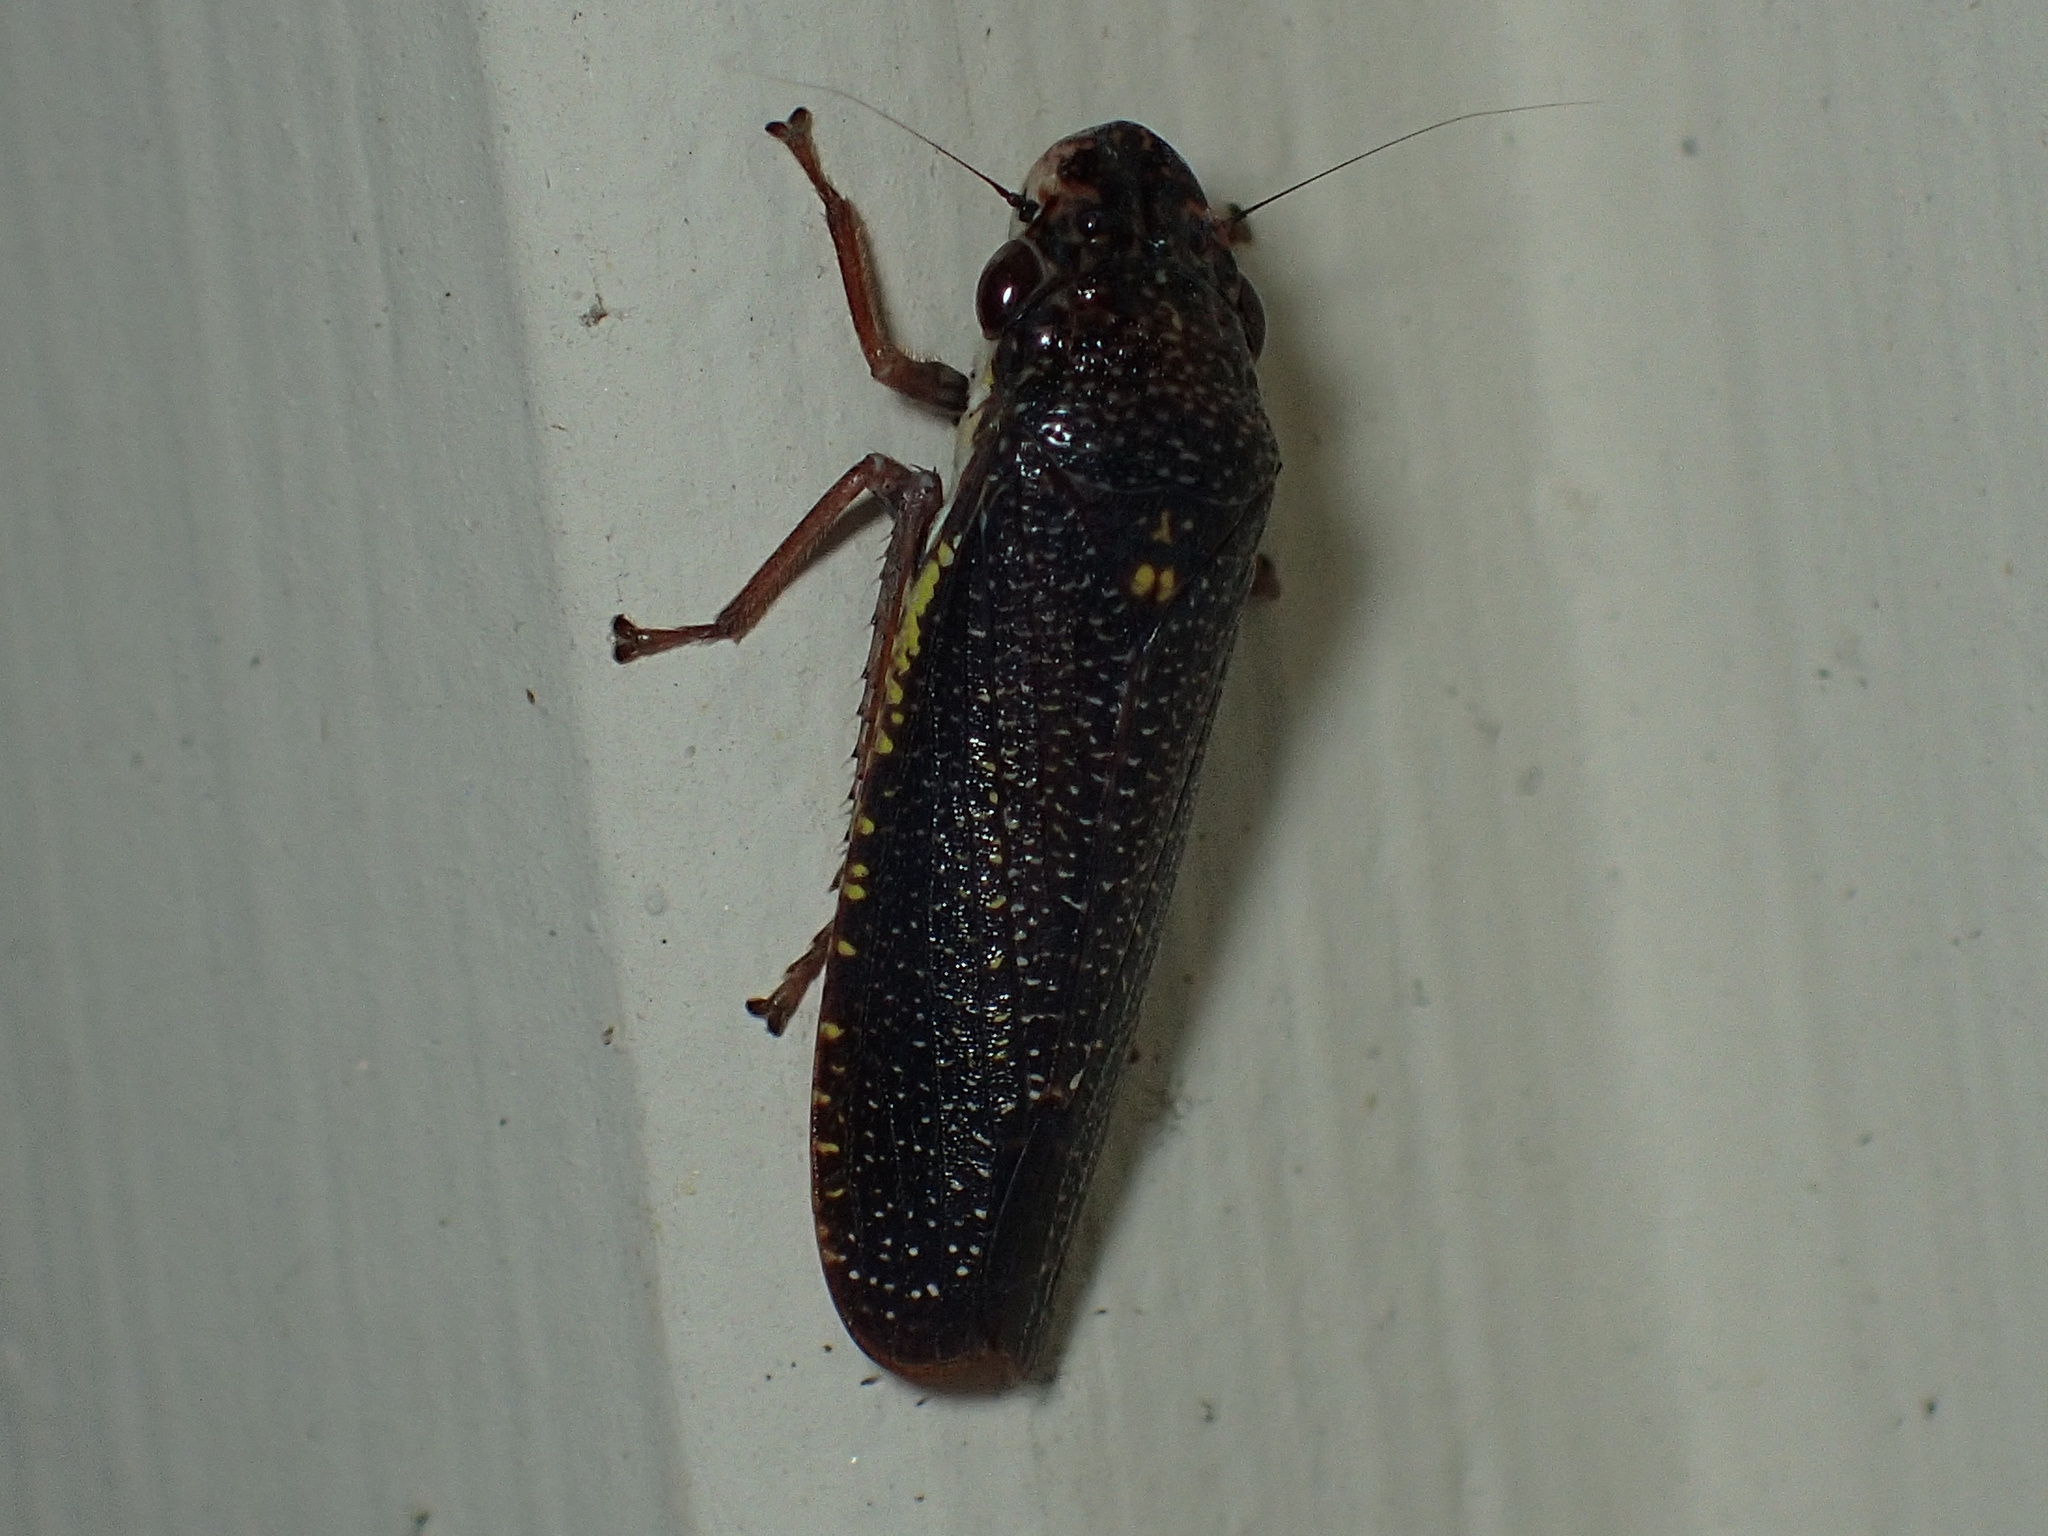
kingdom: Animalia
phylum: Arthropoda
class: Insecta
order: Hemiptera
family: Cicadellidae
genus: Paraulacizes
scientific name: Paraulacizes irrorata
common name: Speckled sharpshooter
